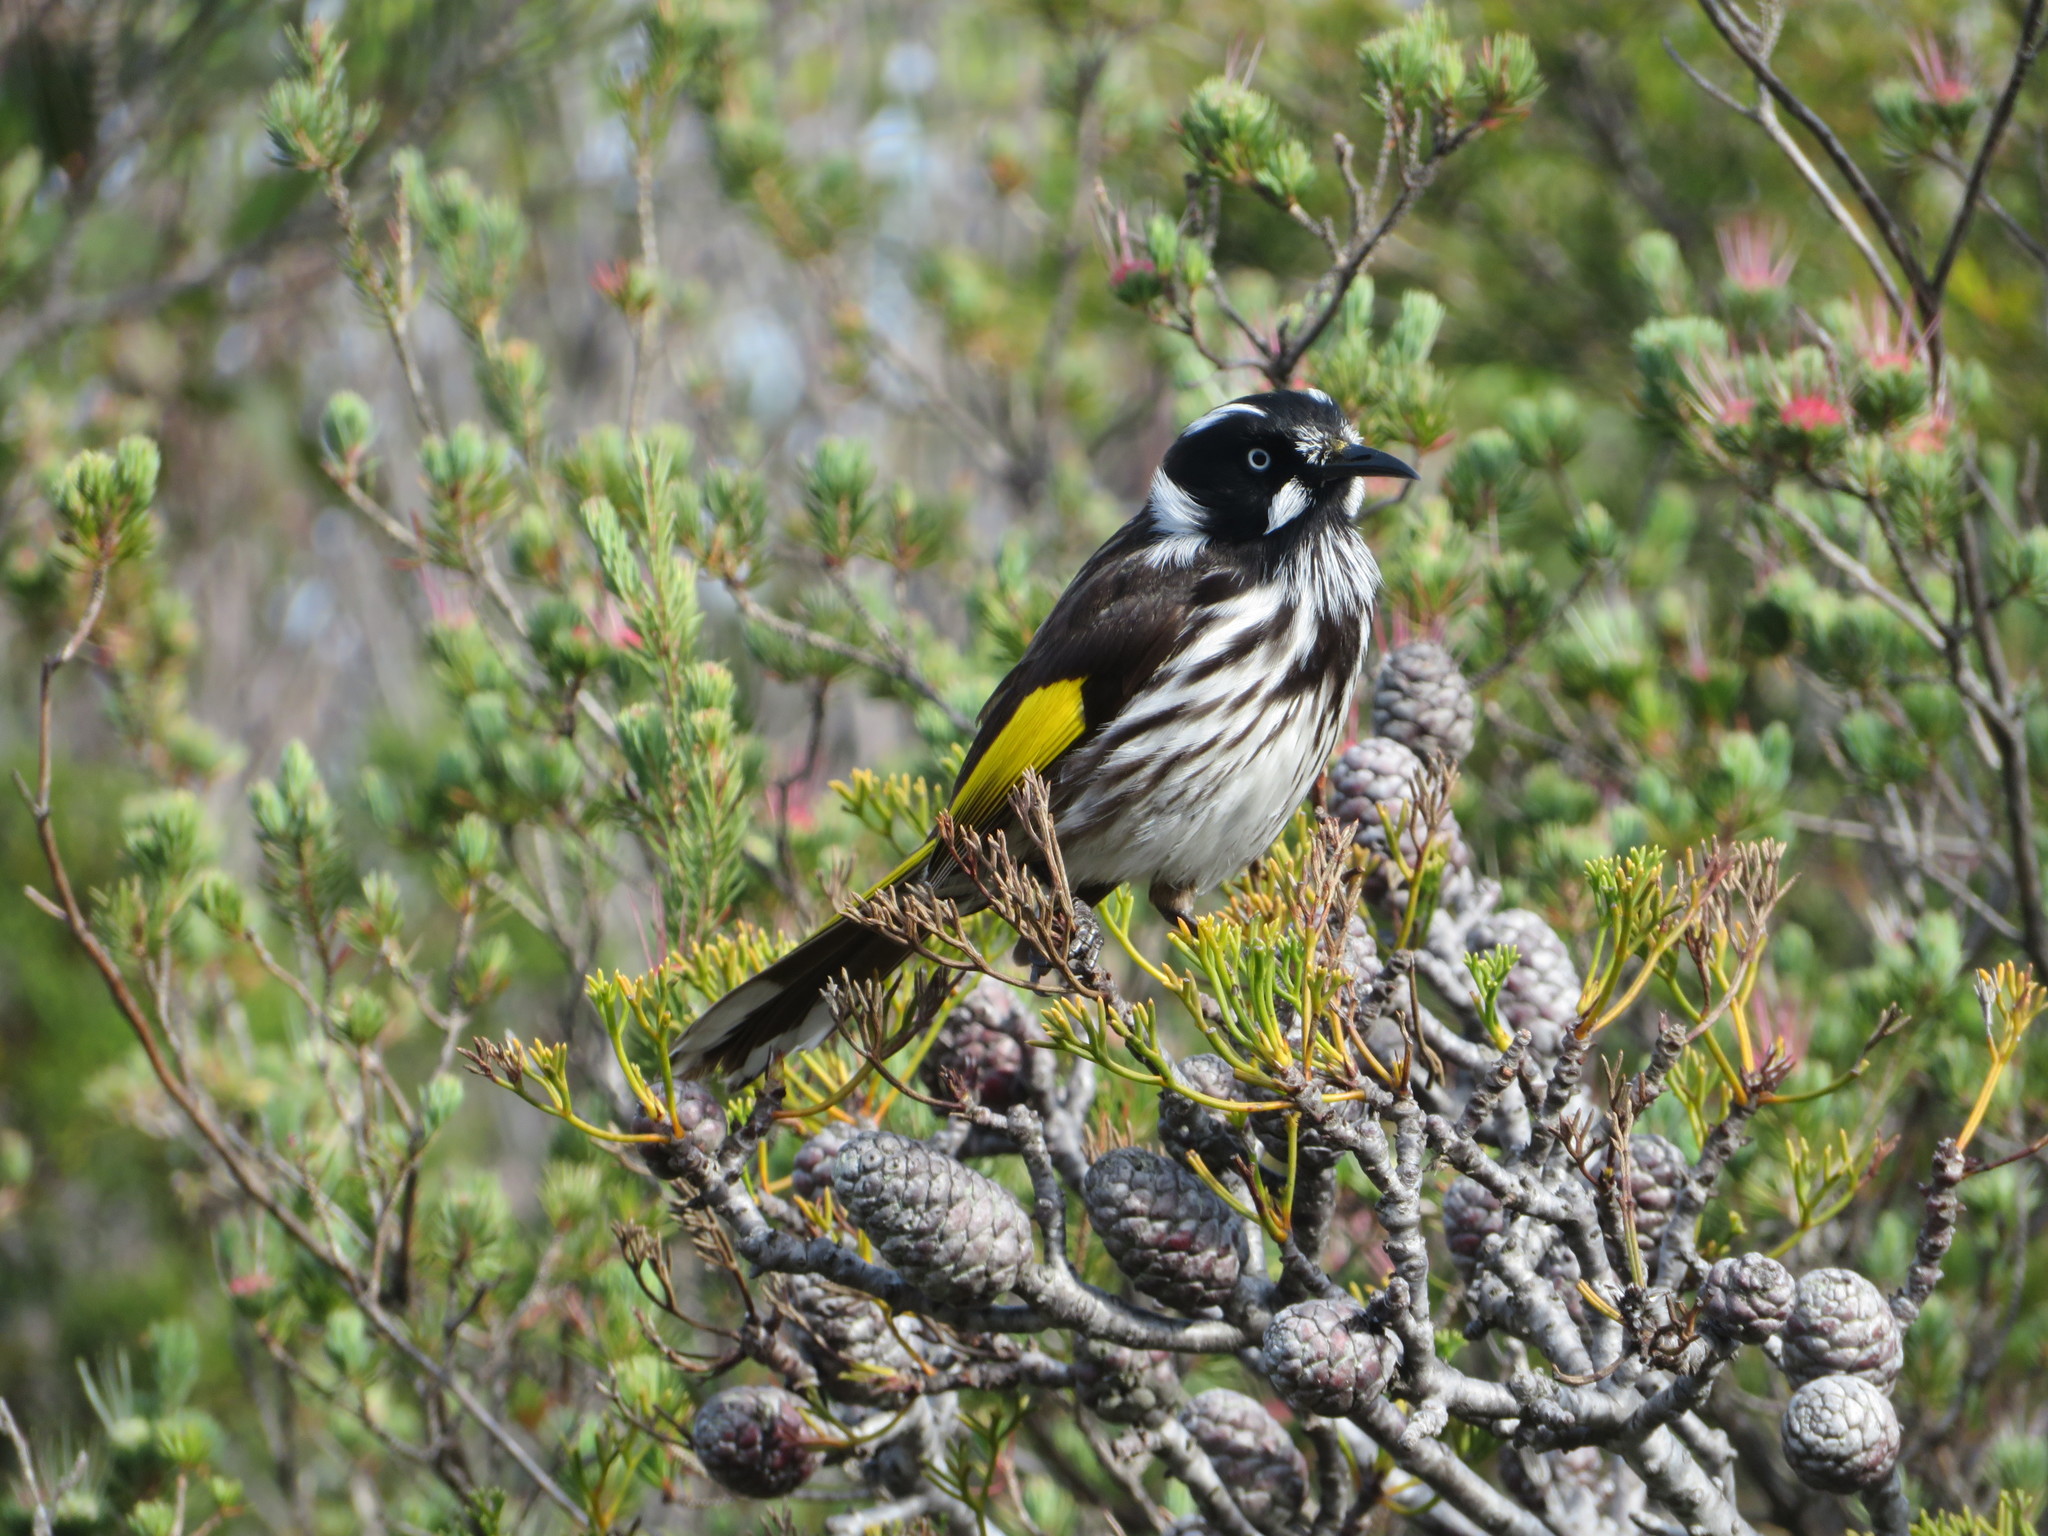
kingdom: Animalia
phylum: Chordata
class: Aves
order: Passeriformes
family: Meliphagidae
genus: Phylidonyris
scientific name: Phylidonyris novaehollandiae
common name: New holland honeyeater
